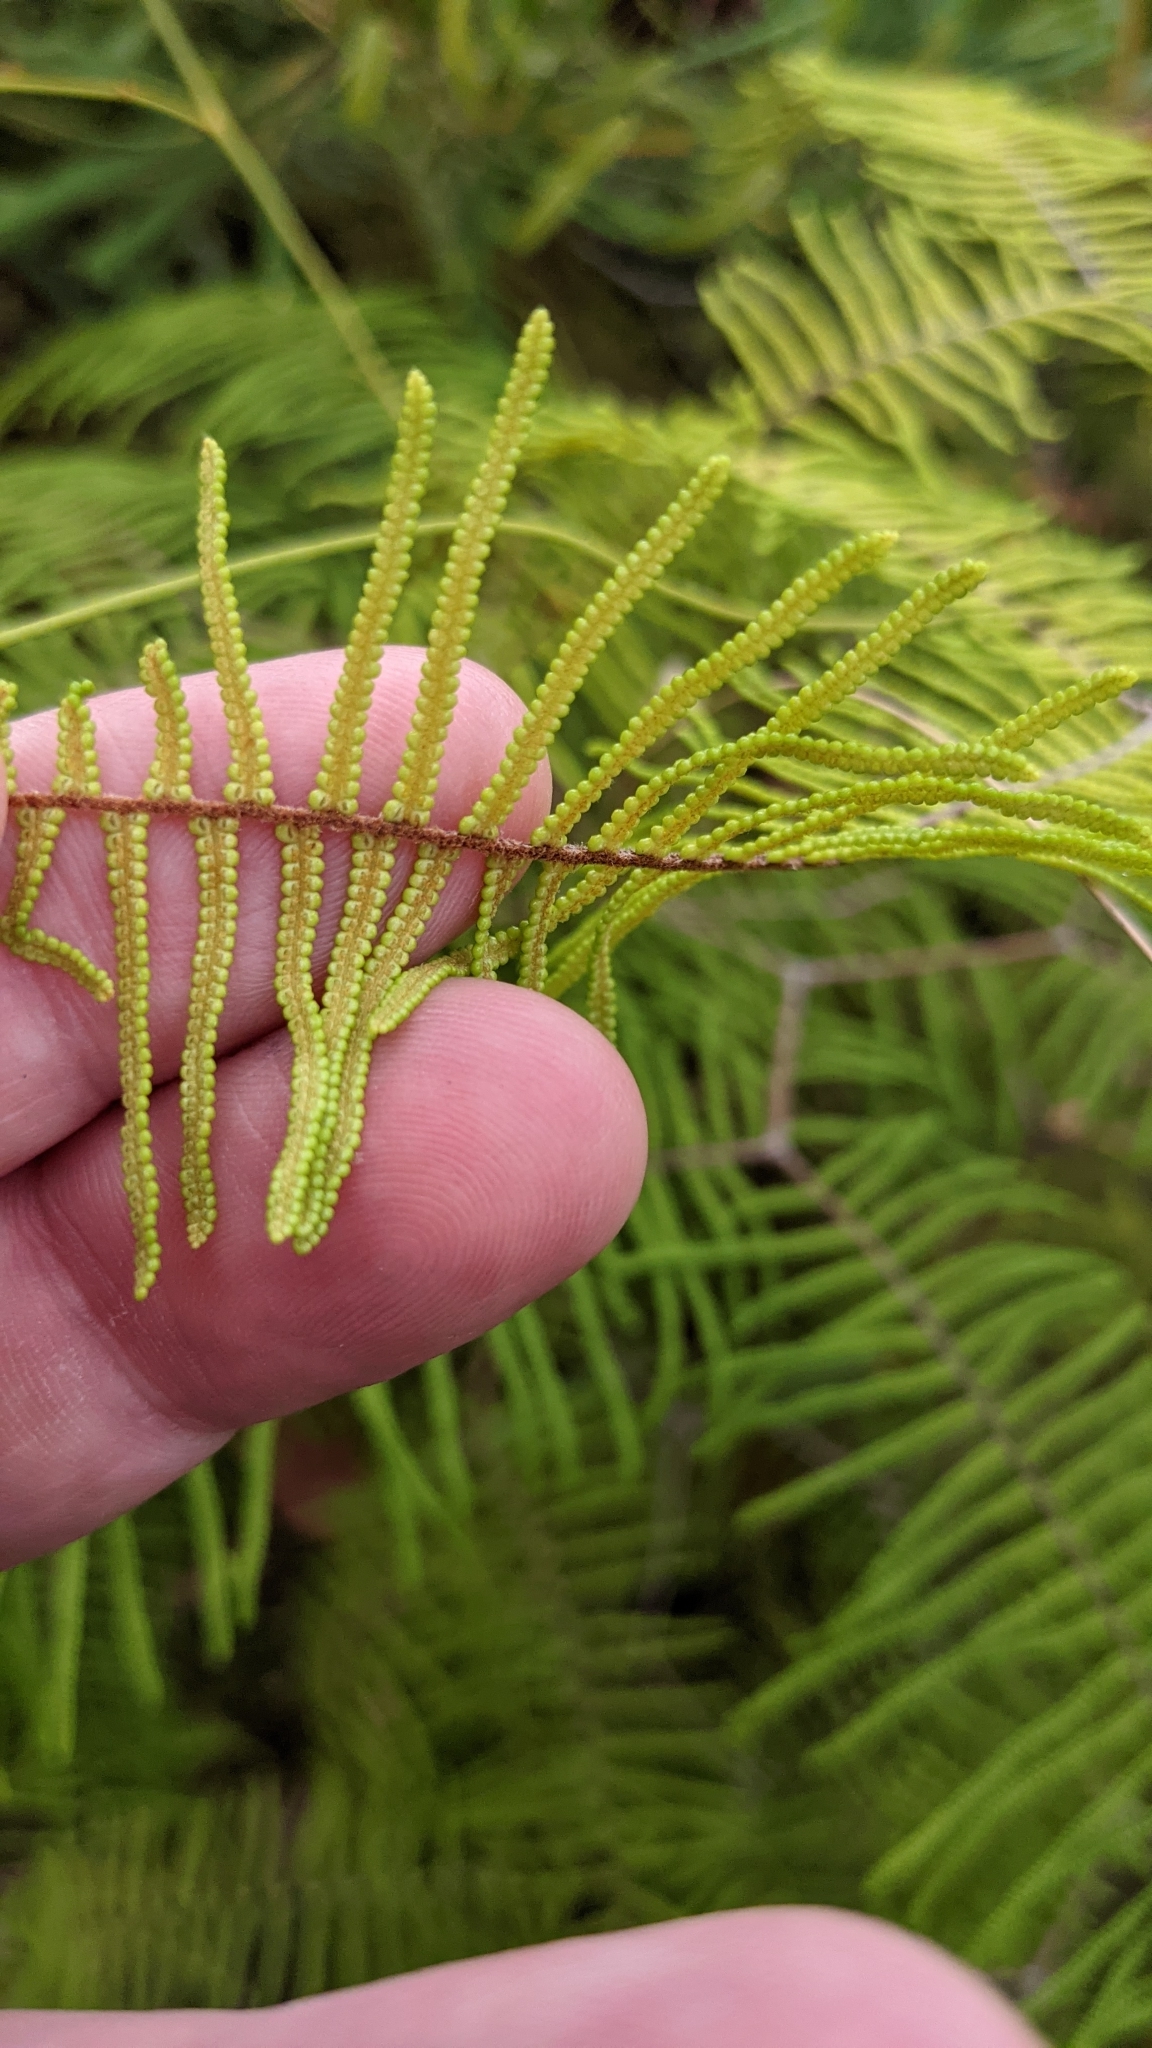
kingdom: Plantae
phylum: Tracheophyta
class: Polypodiopsida
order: Gleicheniales
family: Gleicheniaceae
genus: Gleichenia
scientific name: Gleichenia dicarpa
